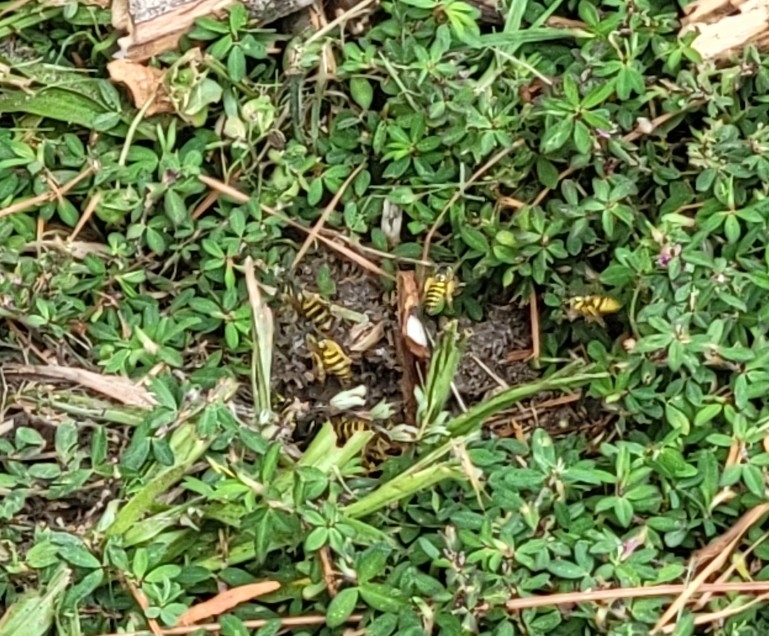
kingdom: Animalia
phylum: Arthropoda
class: Insecta
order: Hymenoptera
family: Vespidae
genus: Vespula
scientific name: Vespula maculifrons
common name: Eastern yellowjacket
